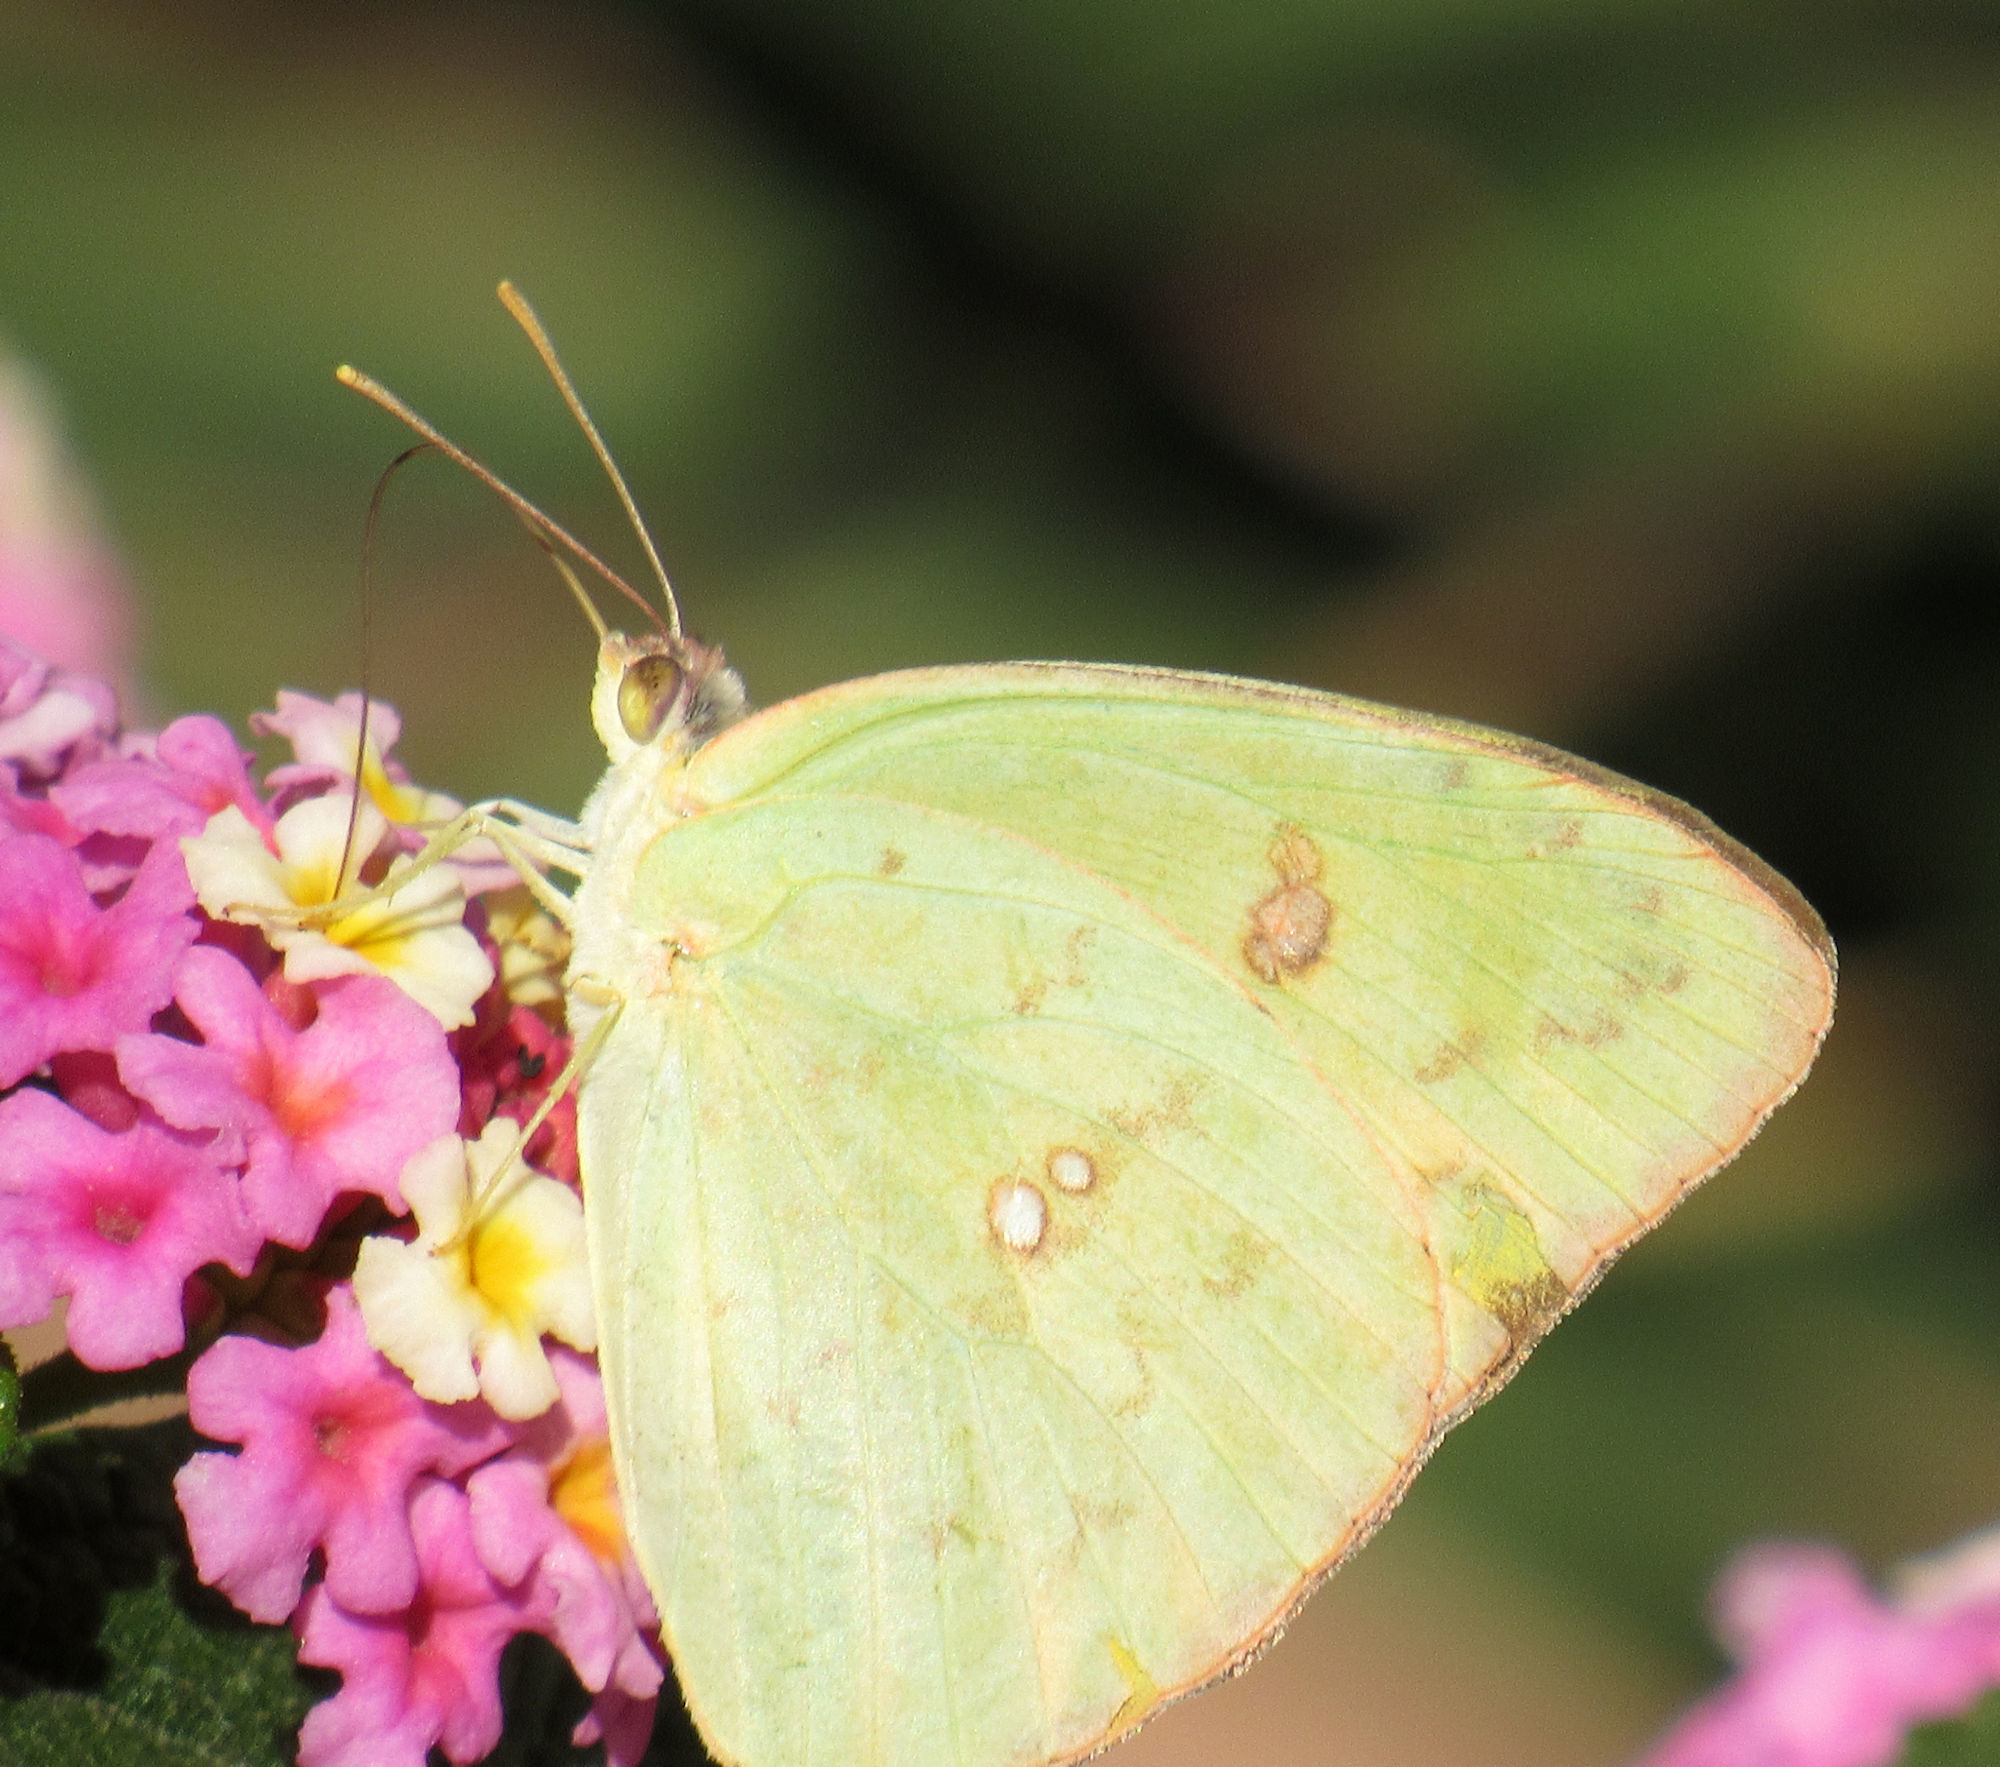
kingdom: Animalia
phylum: Arthropoda
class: Insecta
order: Lepidoptera
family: Pieridae
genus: Phoebis
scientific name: Phoebis sennae
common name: Cloudless sulphur
